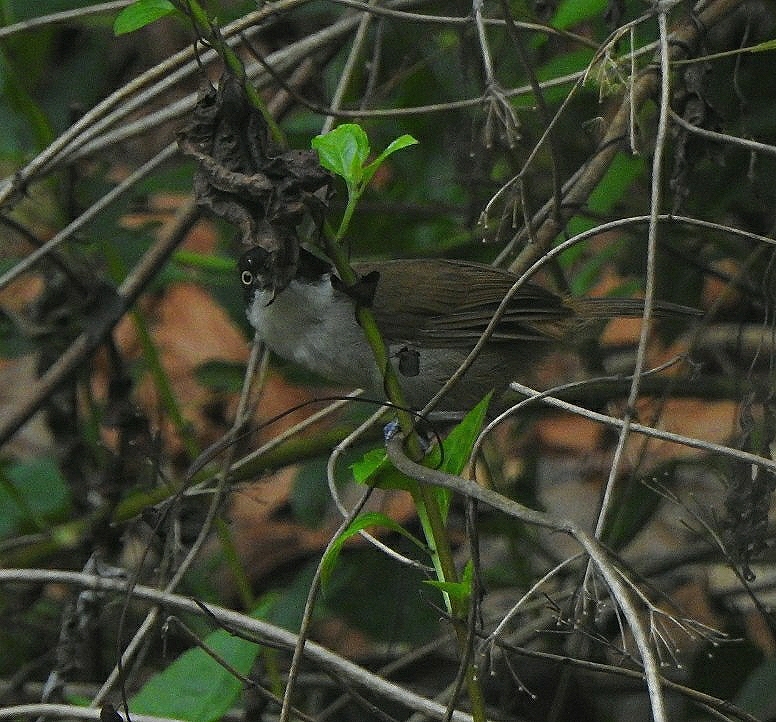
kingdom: Animalia
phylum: Chordata
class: Aves
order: Passeriformes
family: Timaliidae
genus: Rhopocichla
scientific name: Rhopocichla atriceps
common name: Dark-fronted babbler
